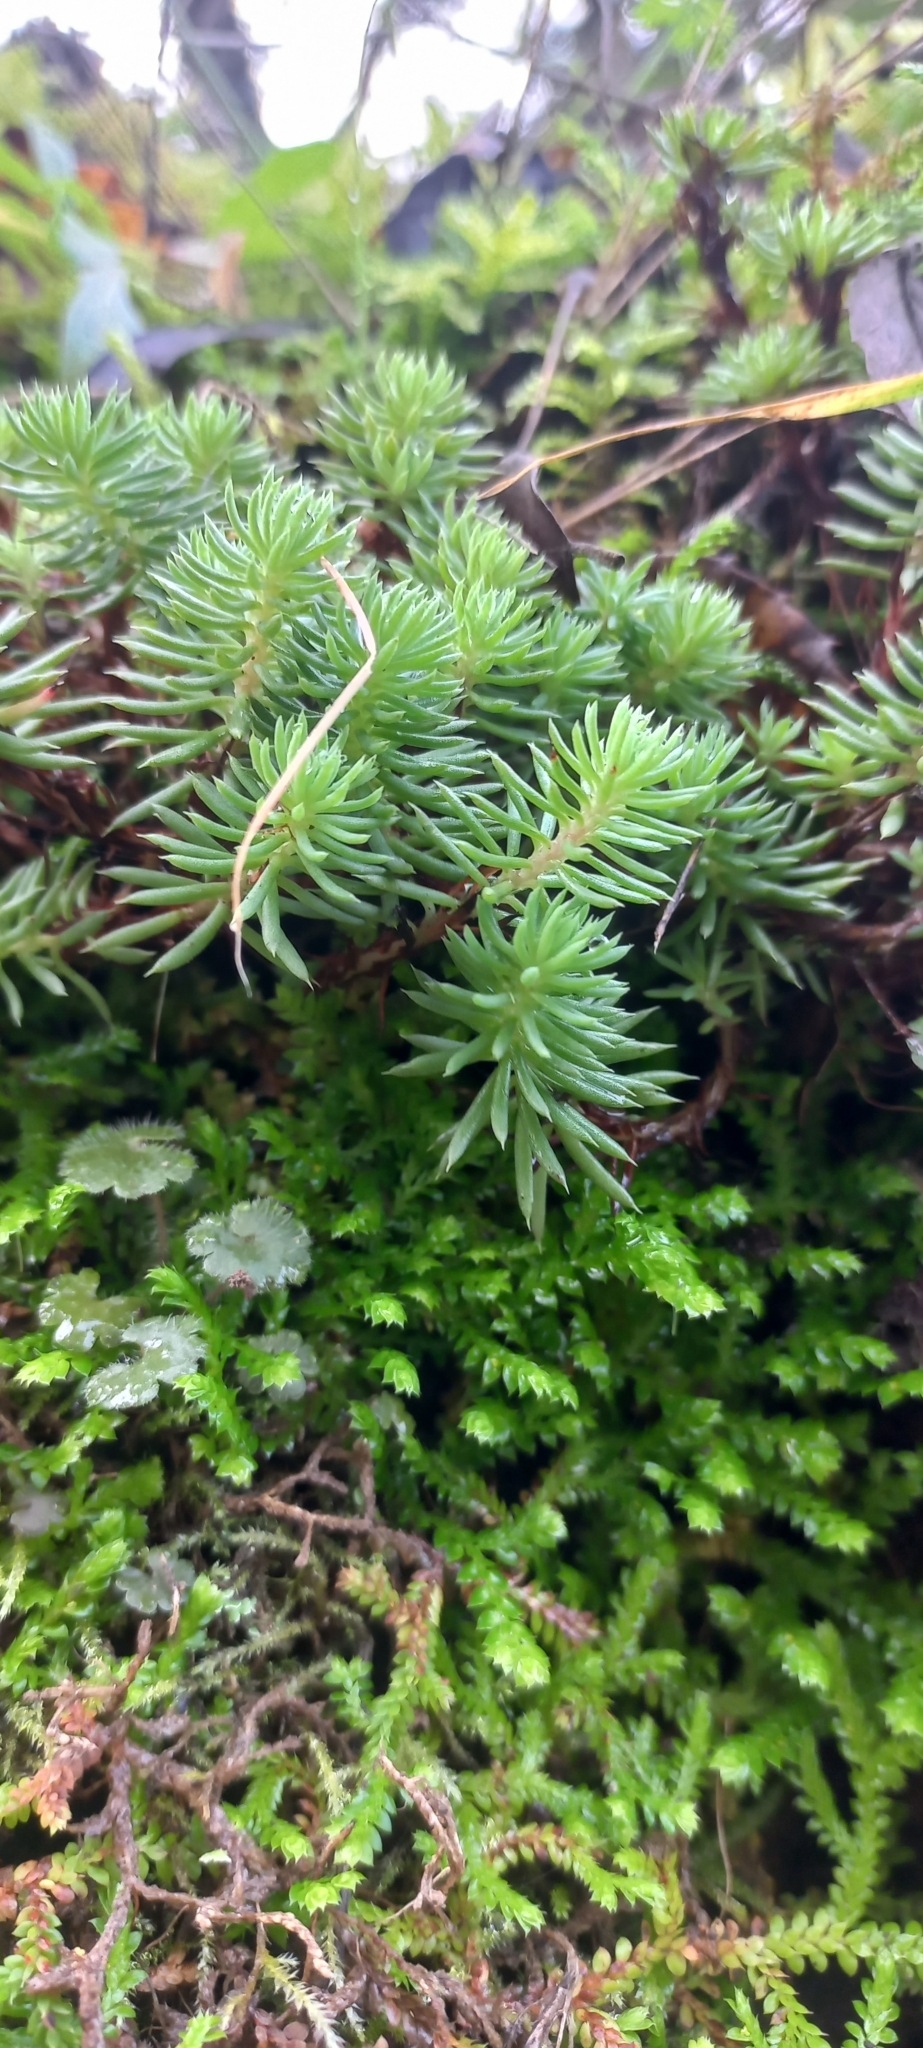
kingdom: Plantae
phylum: Tracheophyta
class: Magnoliopsida
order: Saxifragales
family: Crassulaceae
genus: Petrosedum
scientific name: Petrosedum forsterianum
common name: Forster's stonecrop
